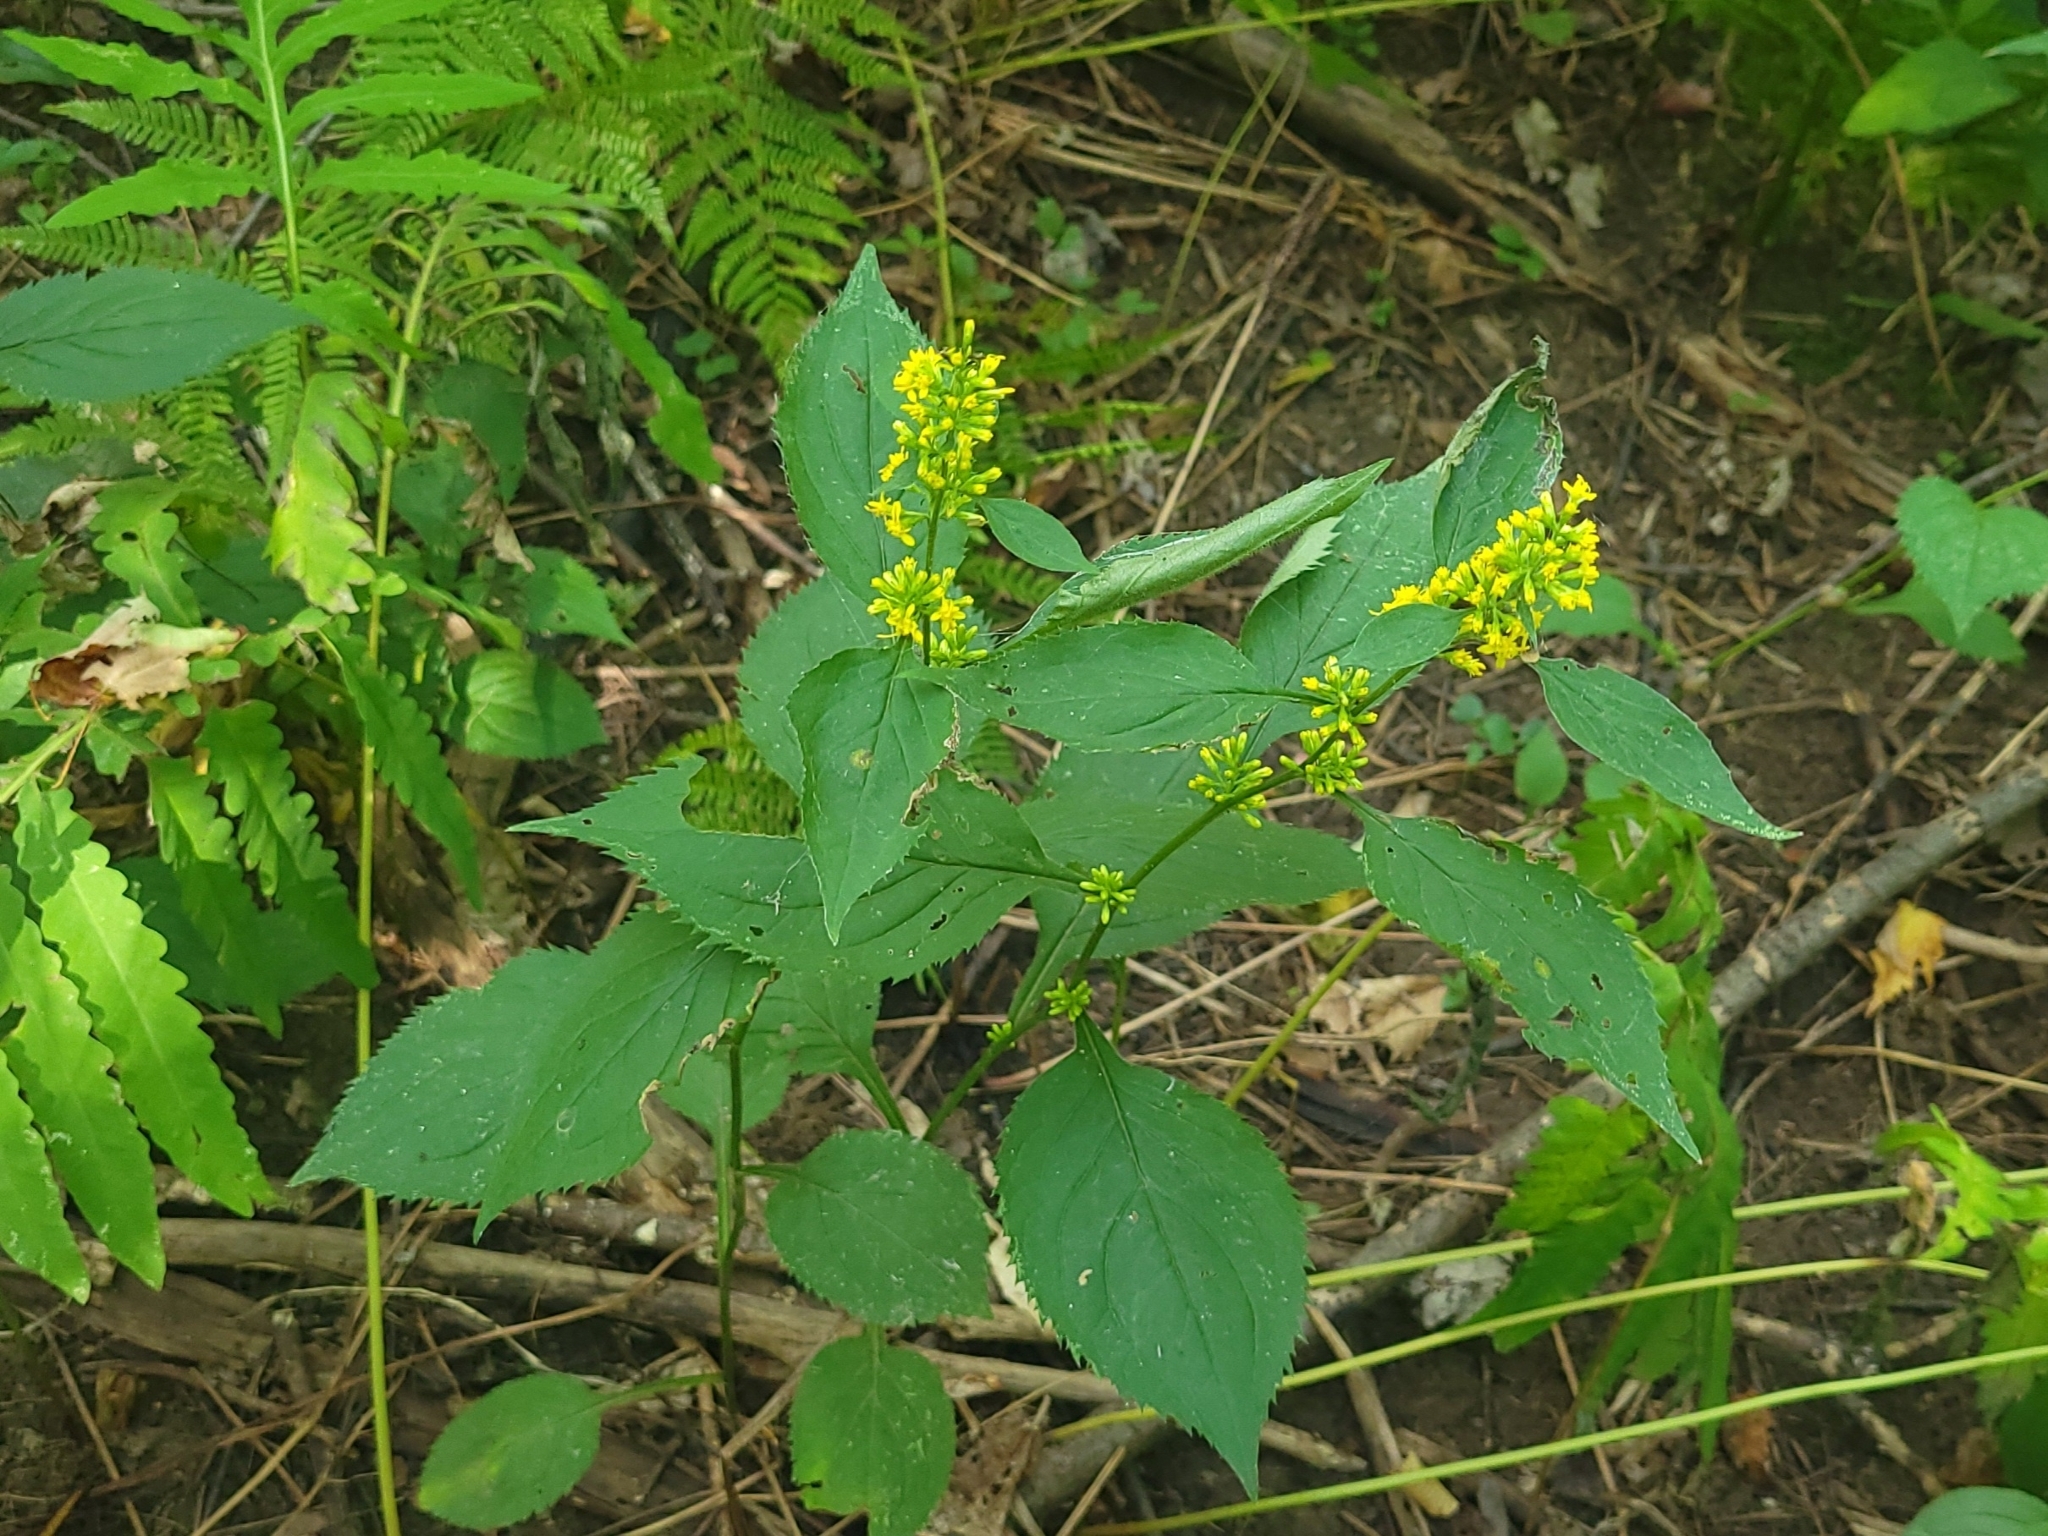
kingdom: Plantae
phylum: Tracheophyta
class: Magnoliopsida
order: Asterales
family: Asteraceae
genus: Solidago
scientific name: Solidago flexicaulis
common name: Zig-zag goldenrod
